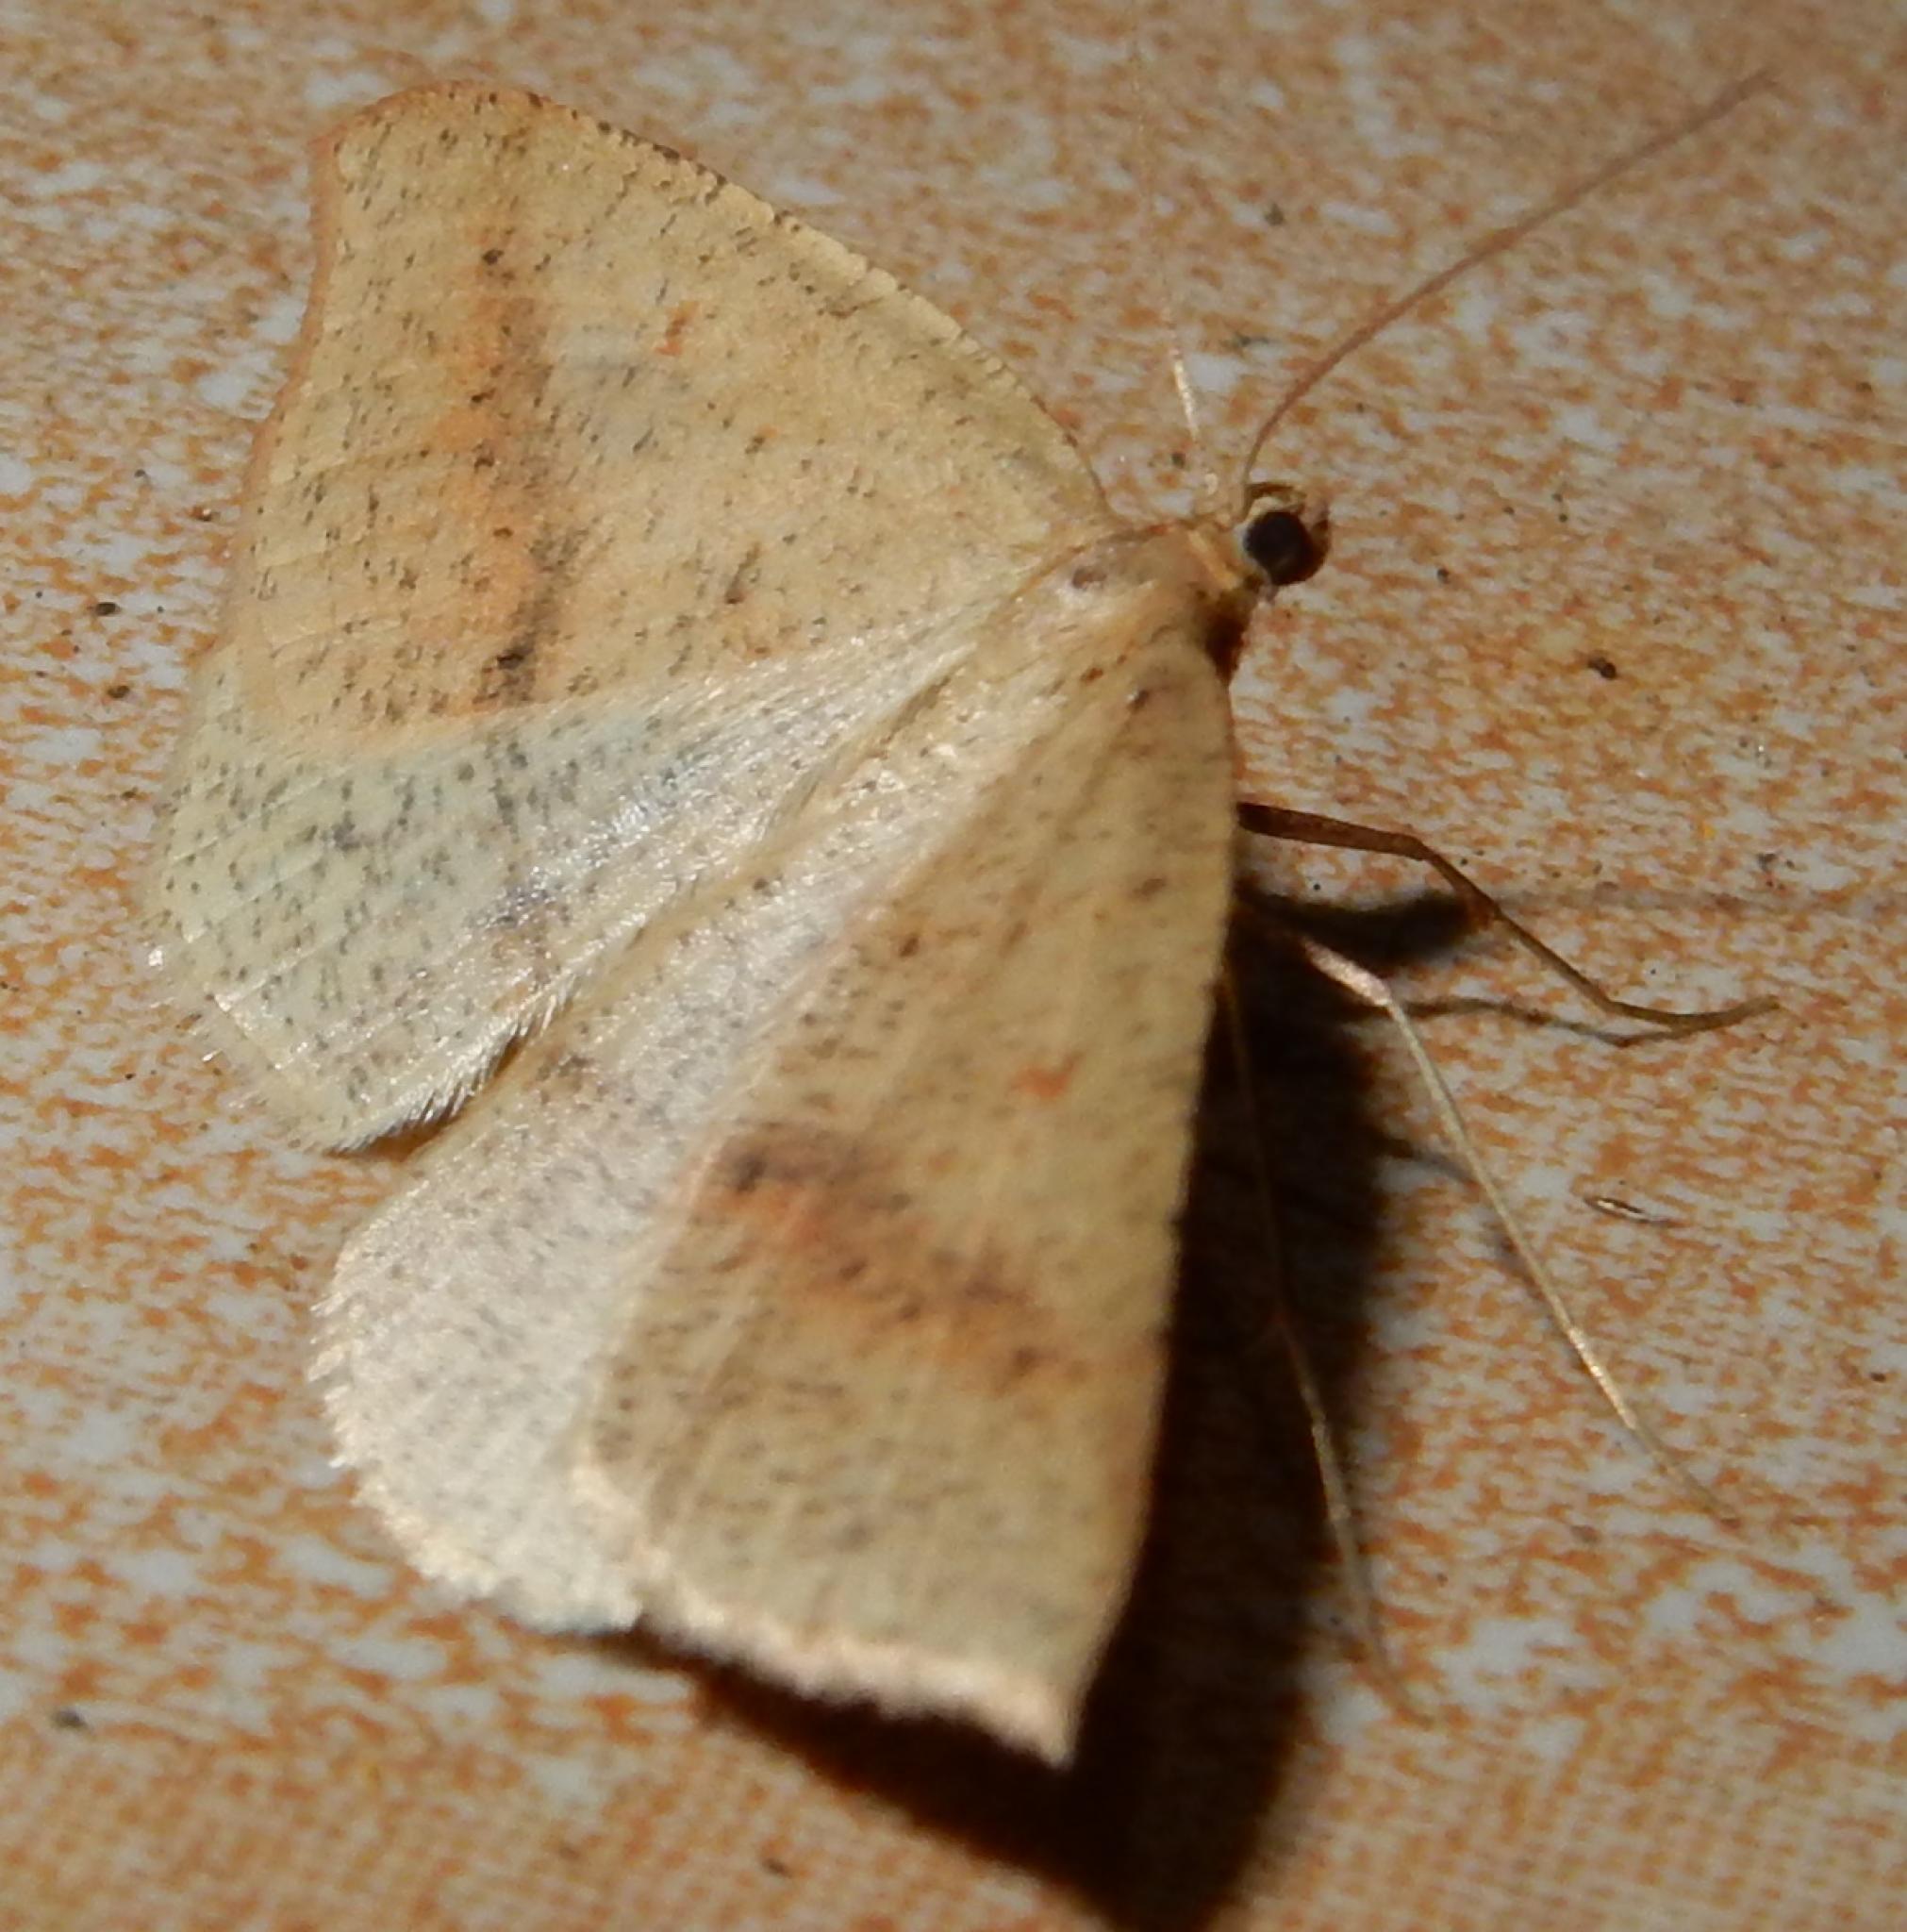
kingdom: Animalia
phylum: Arthropoda
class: Insecta
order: Lepidoptera
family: Geometridae
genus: Palaeaspilates
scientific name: Palaeaspilates inoffensa
